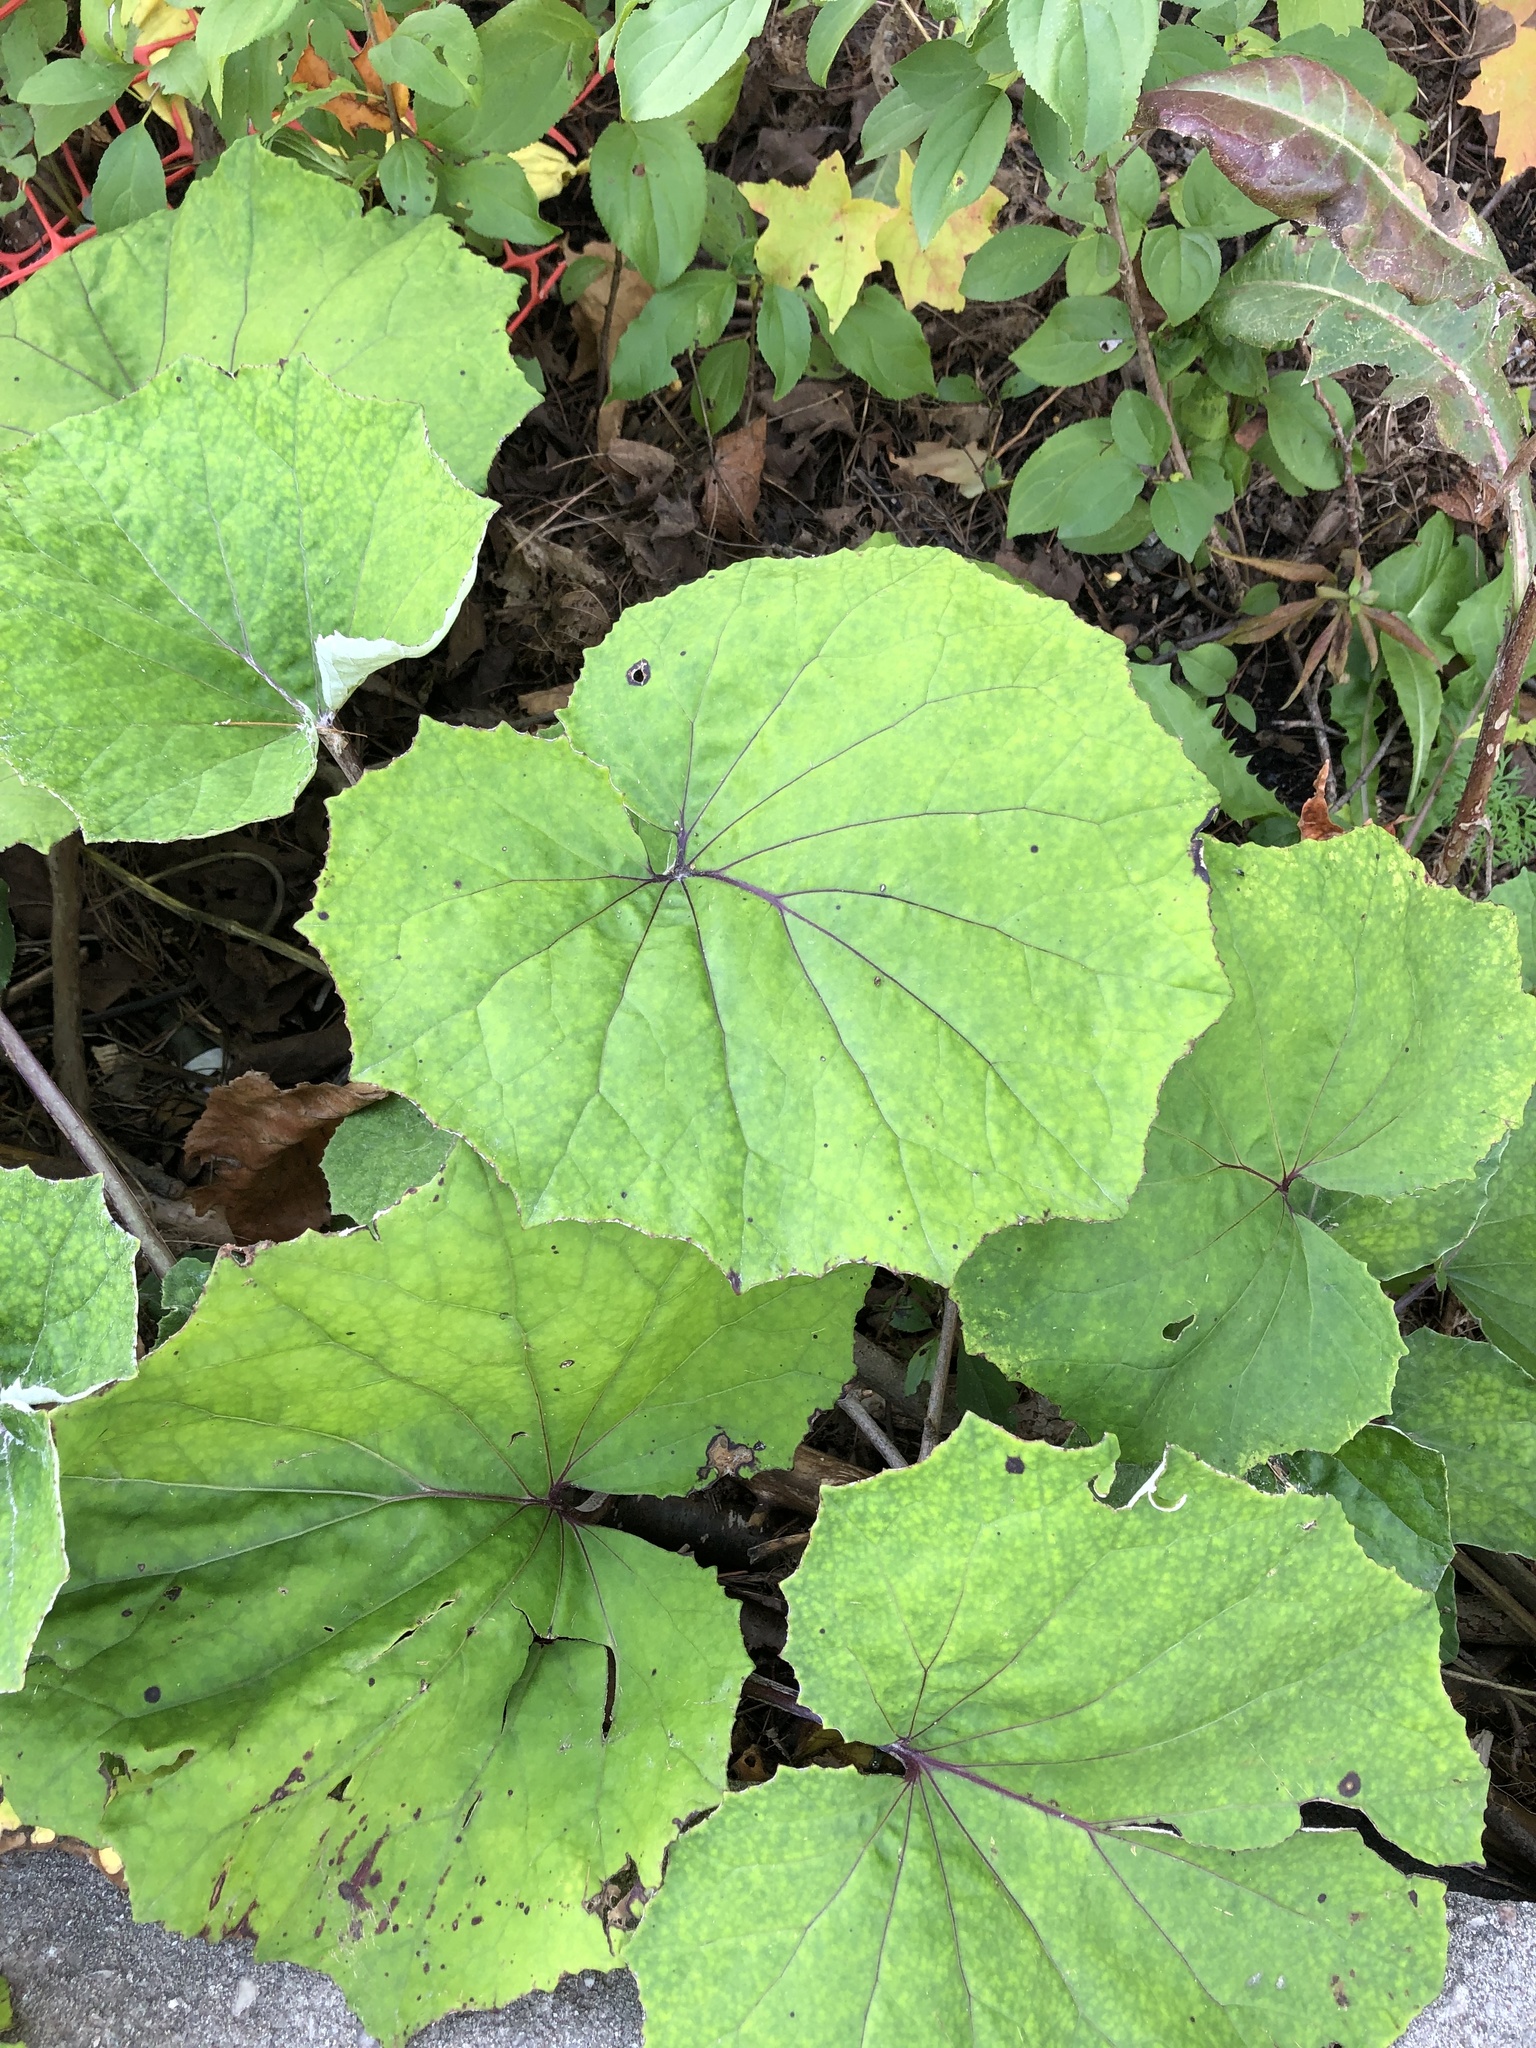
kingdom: Plantae
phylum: Tracheophyta
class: Magnoliopsida
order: Asterales
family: Asteraceae
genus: Tussilago
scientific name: Tussilago farfara
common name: Coltsfoot
